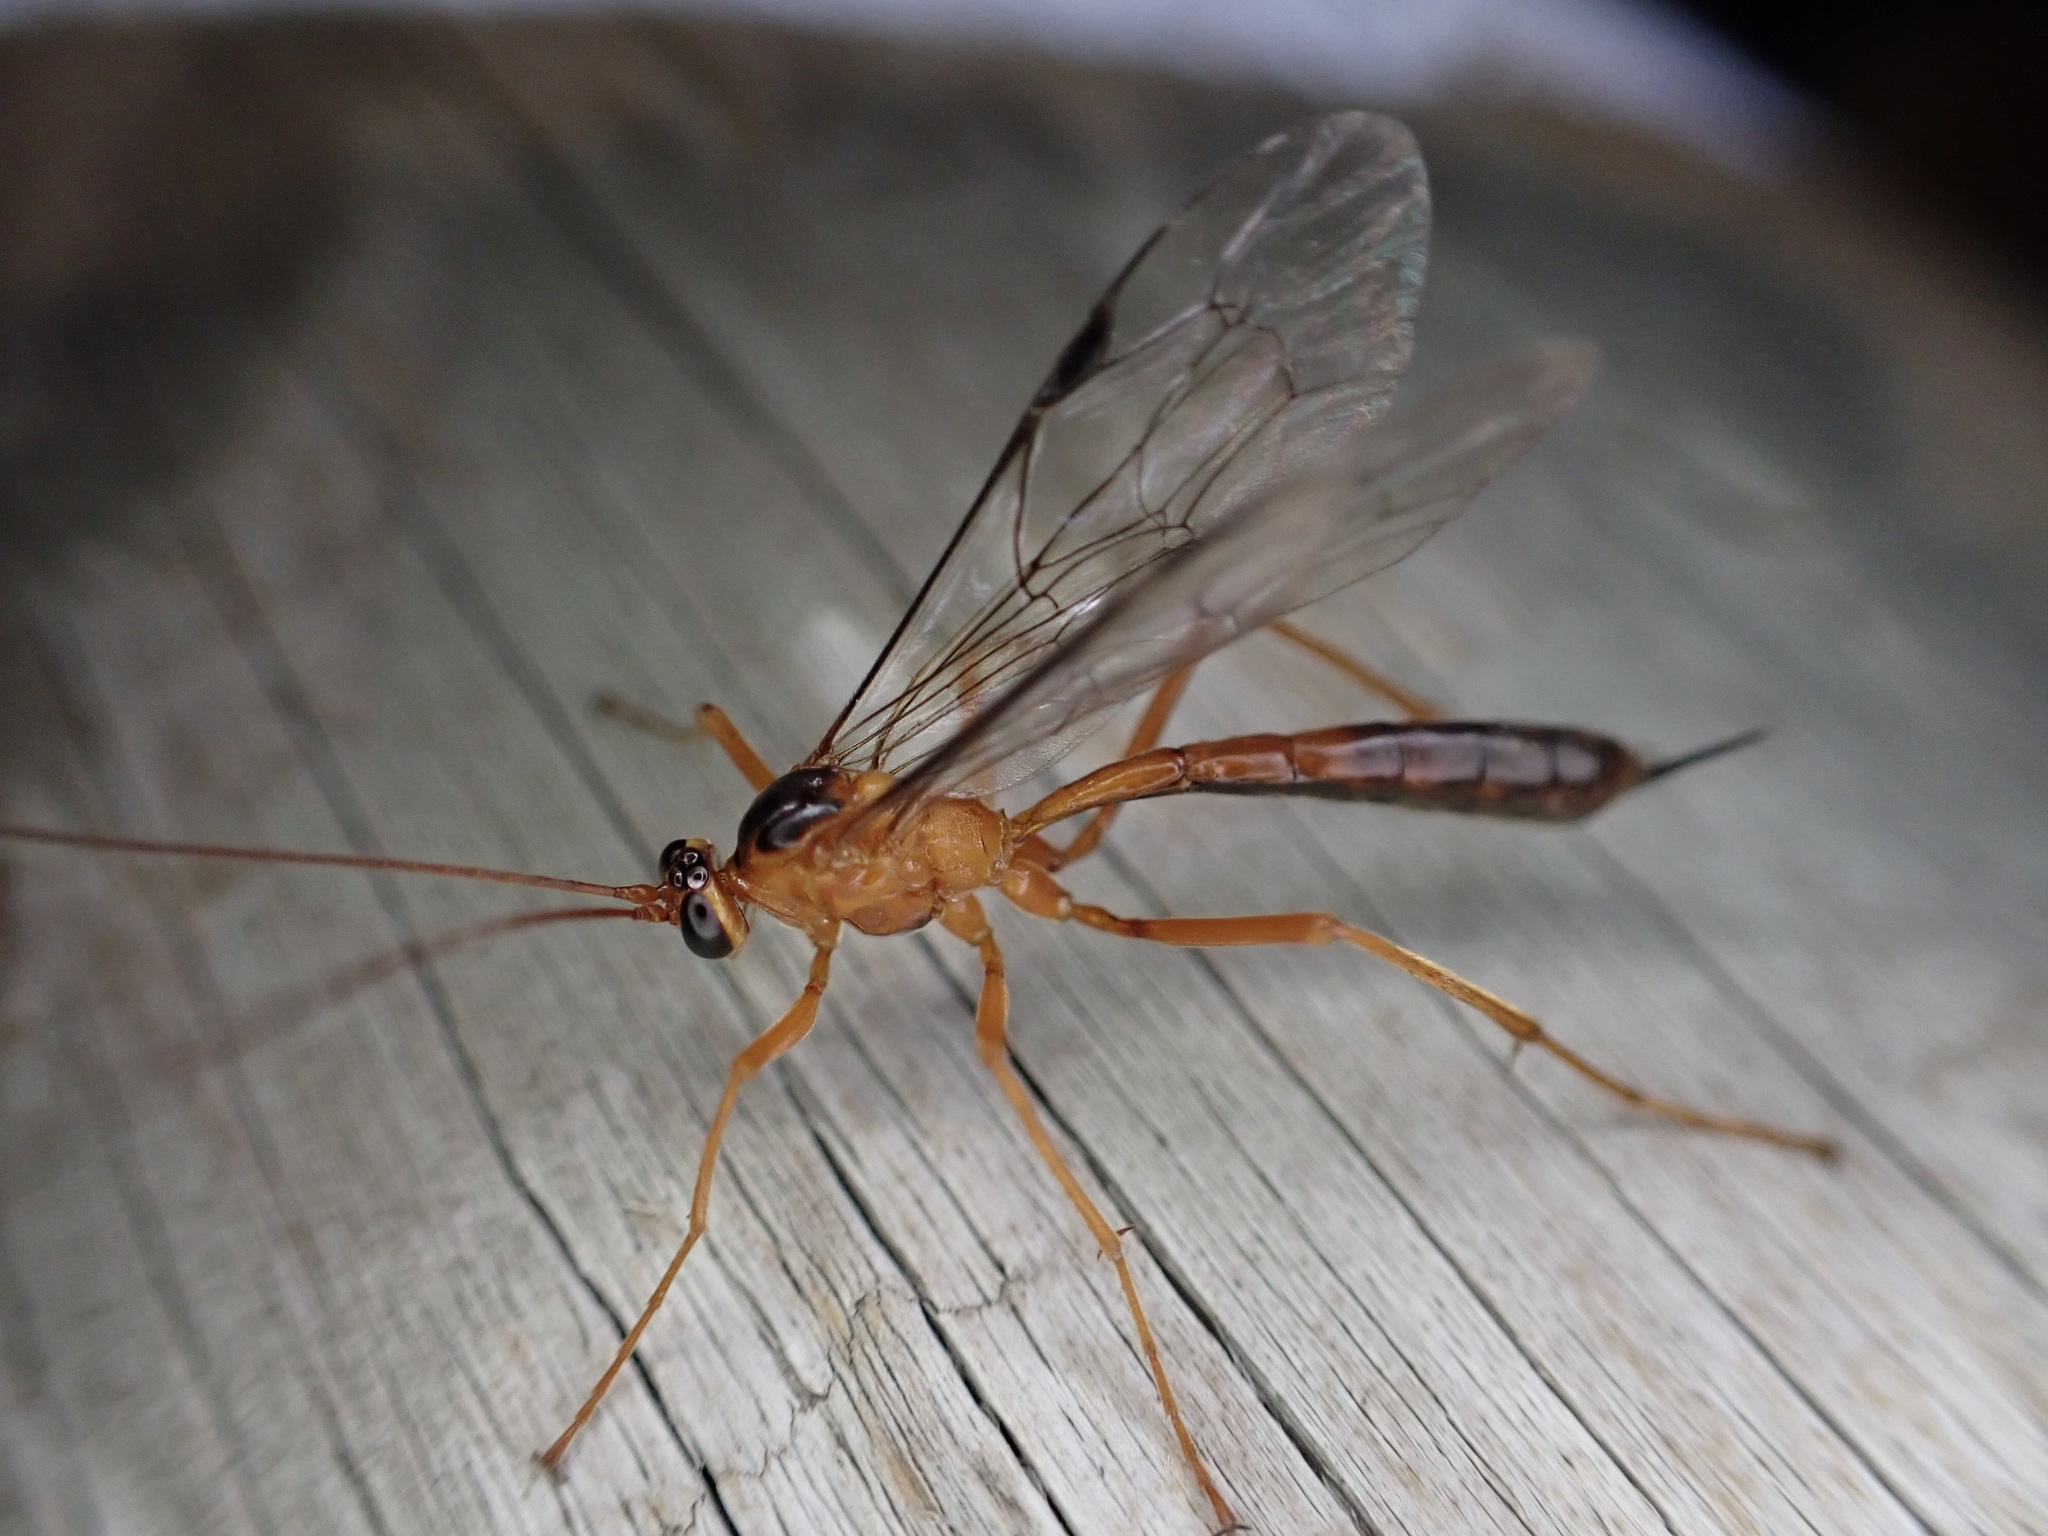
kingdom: Animalia
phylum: Arthropoda
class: Insecta
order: Hymenoptera
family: Ichneumonidae
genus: Netelia
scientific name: Netelia ephippiata
